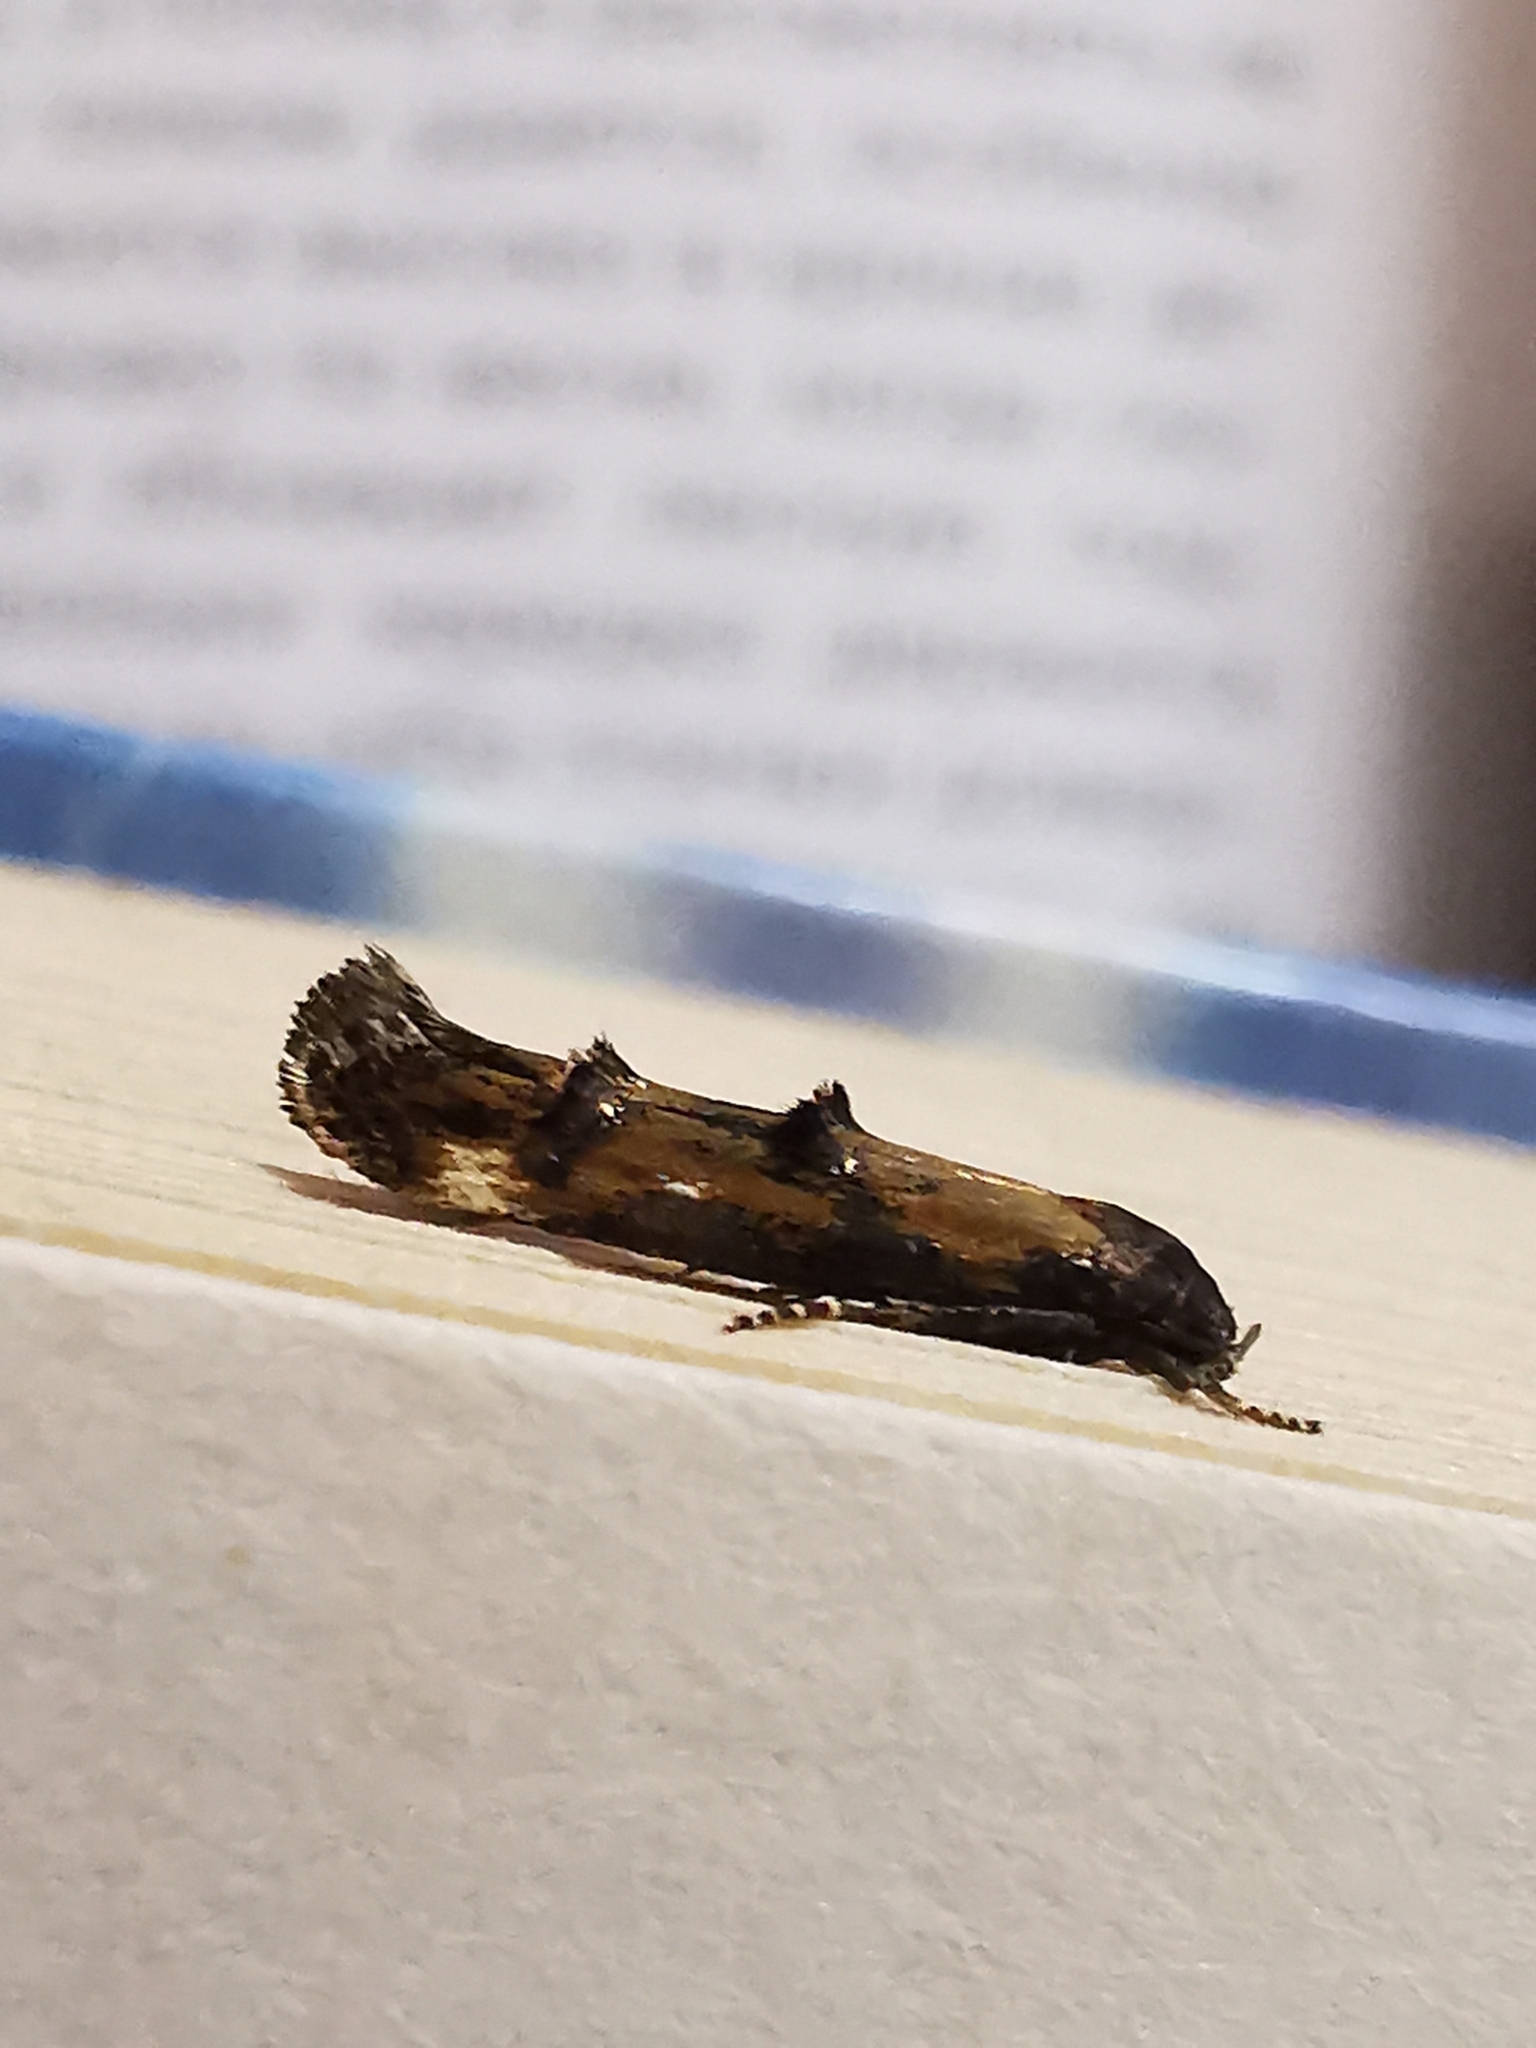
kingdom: Animalia
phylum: Arthropoda
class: Insecta
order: Lepidoptera
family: Momphidae
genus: Mompha
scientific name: Mompha idaei
